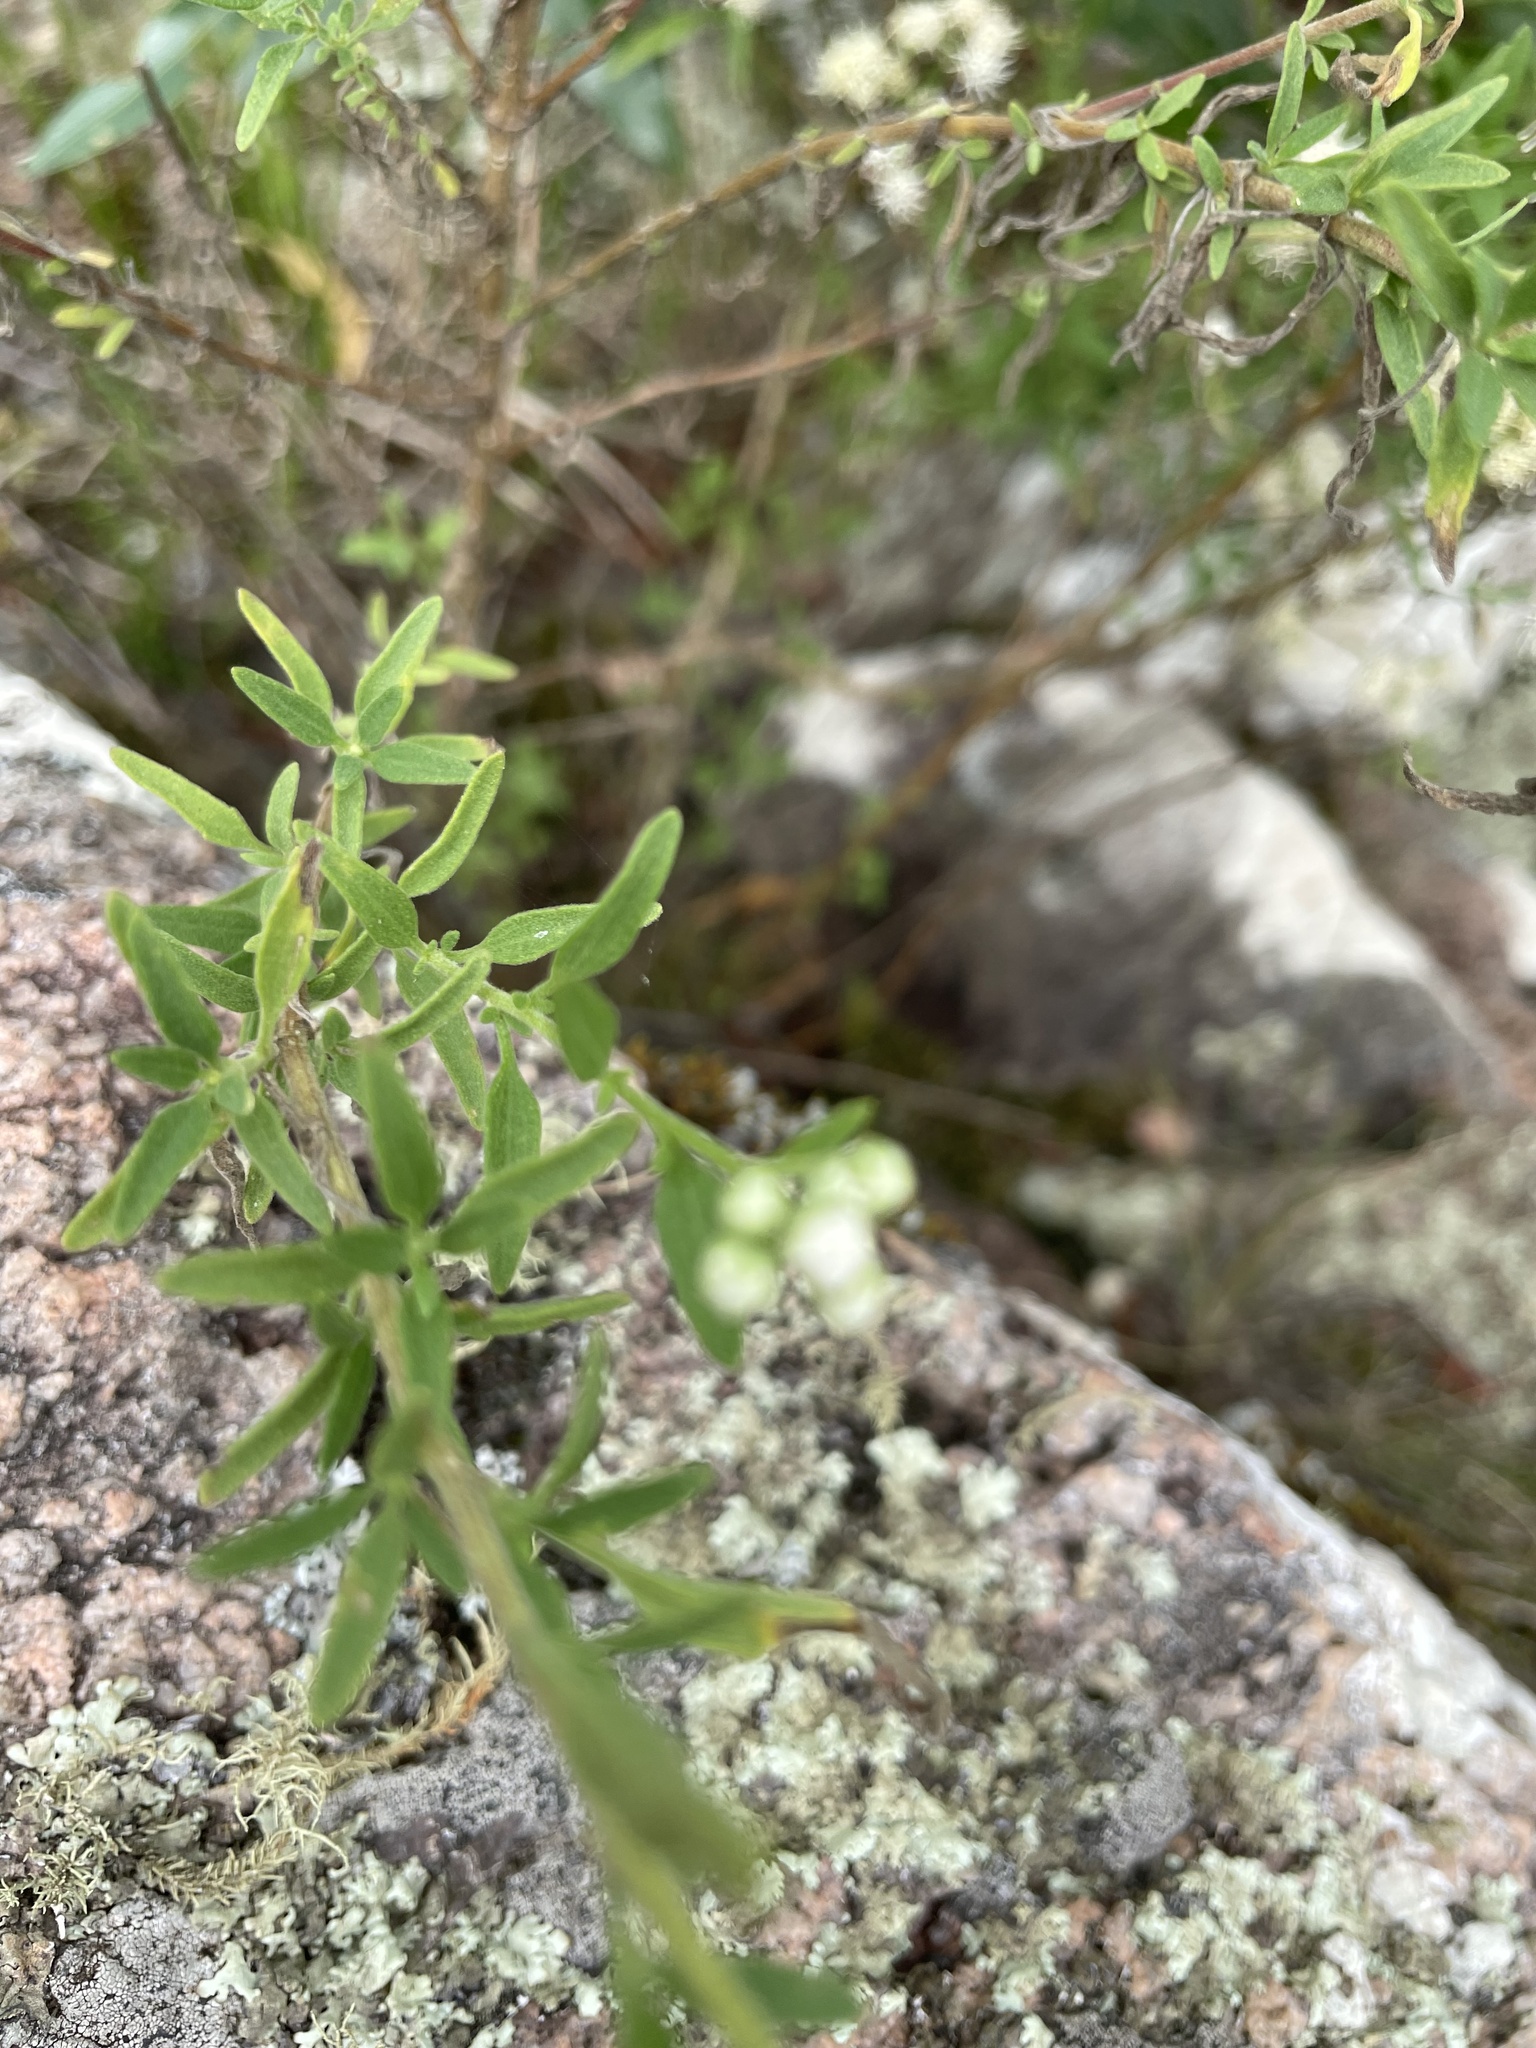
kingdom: Plantae
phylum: Tracheophyta
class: Magnoliopsida
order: Asterales
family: Asteraceae
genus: Hatschbachiella
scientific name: Hatschbachiella tweedieana
